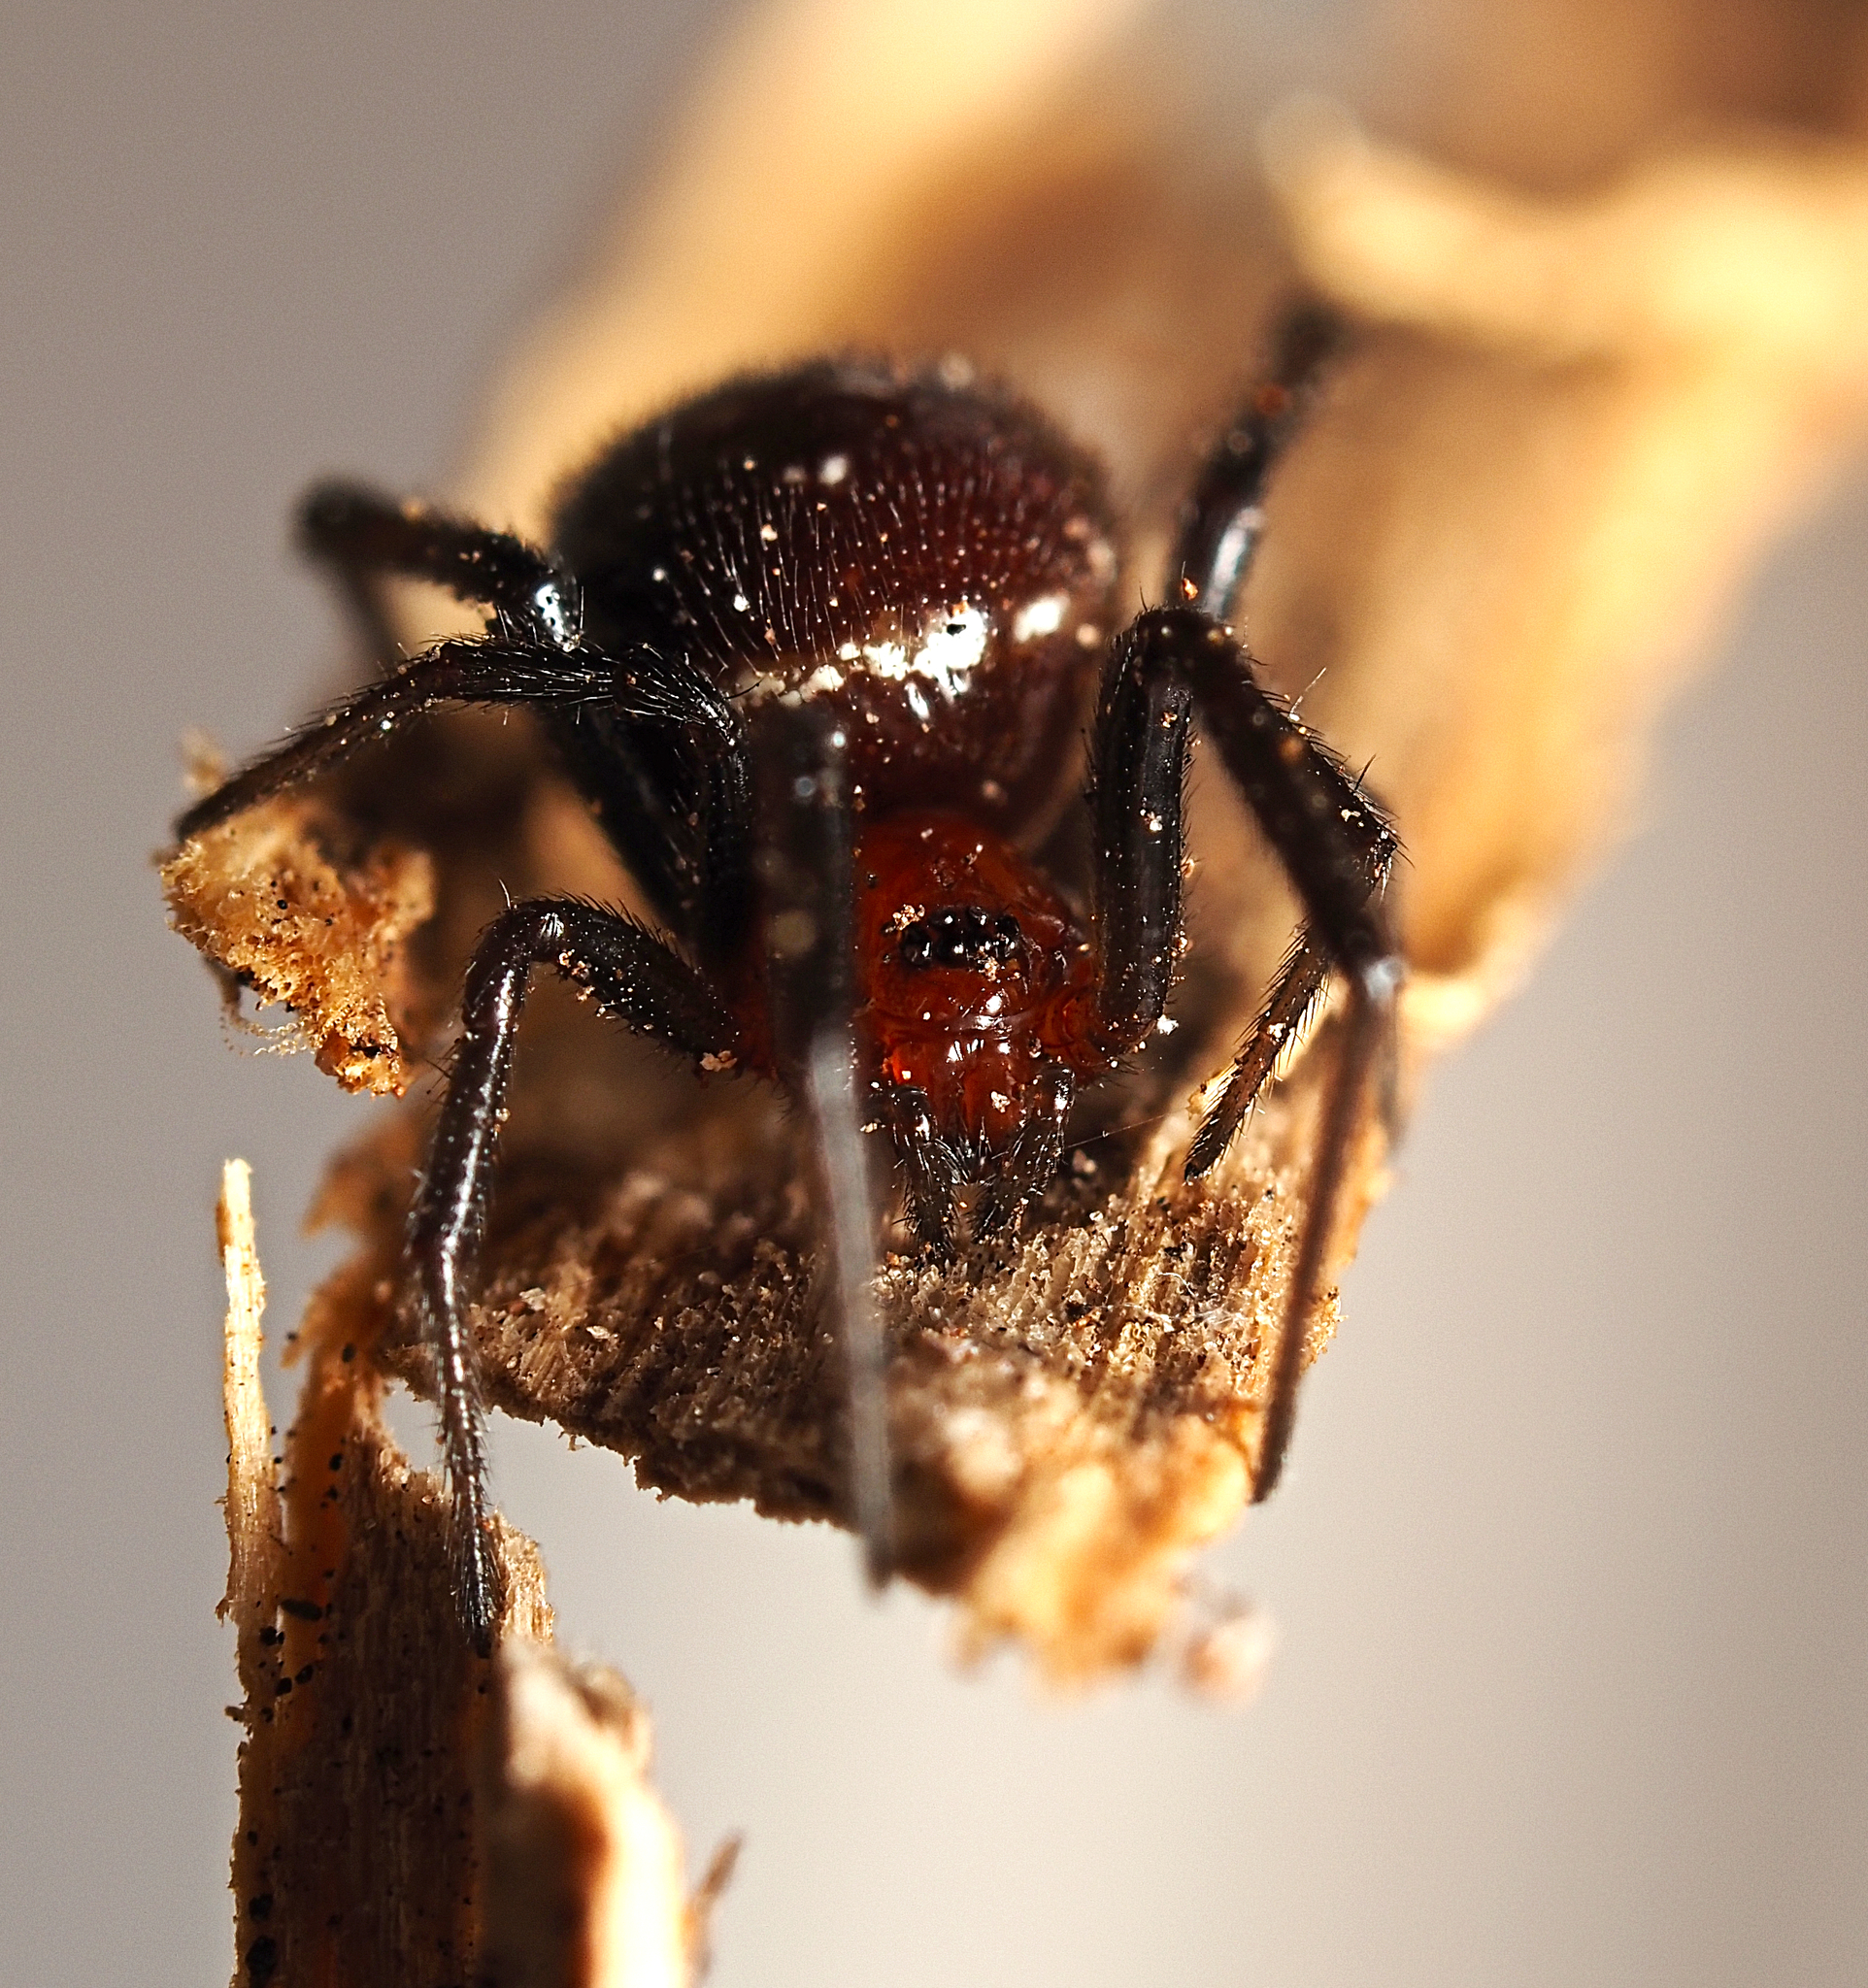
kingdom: Animalia
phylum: Arthropoda
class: Arachnida
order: Araneae
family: Theridiidae
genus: Steatoda
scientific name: Steatoda capensis
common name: Cobweb weaver
